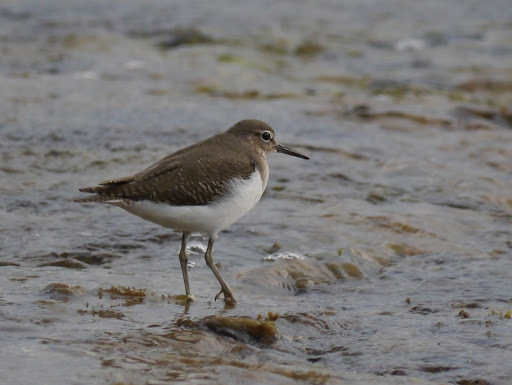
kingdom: Animalia
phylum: Chordata
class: Aves
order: Charadriiformes
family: Scolopacidae
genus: Actitis
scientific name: Actitis hypoleucos
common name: Common sandpiper
